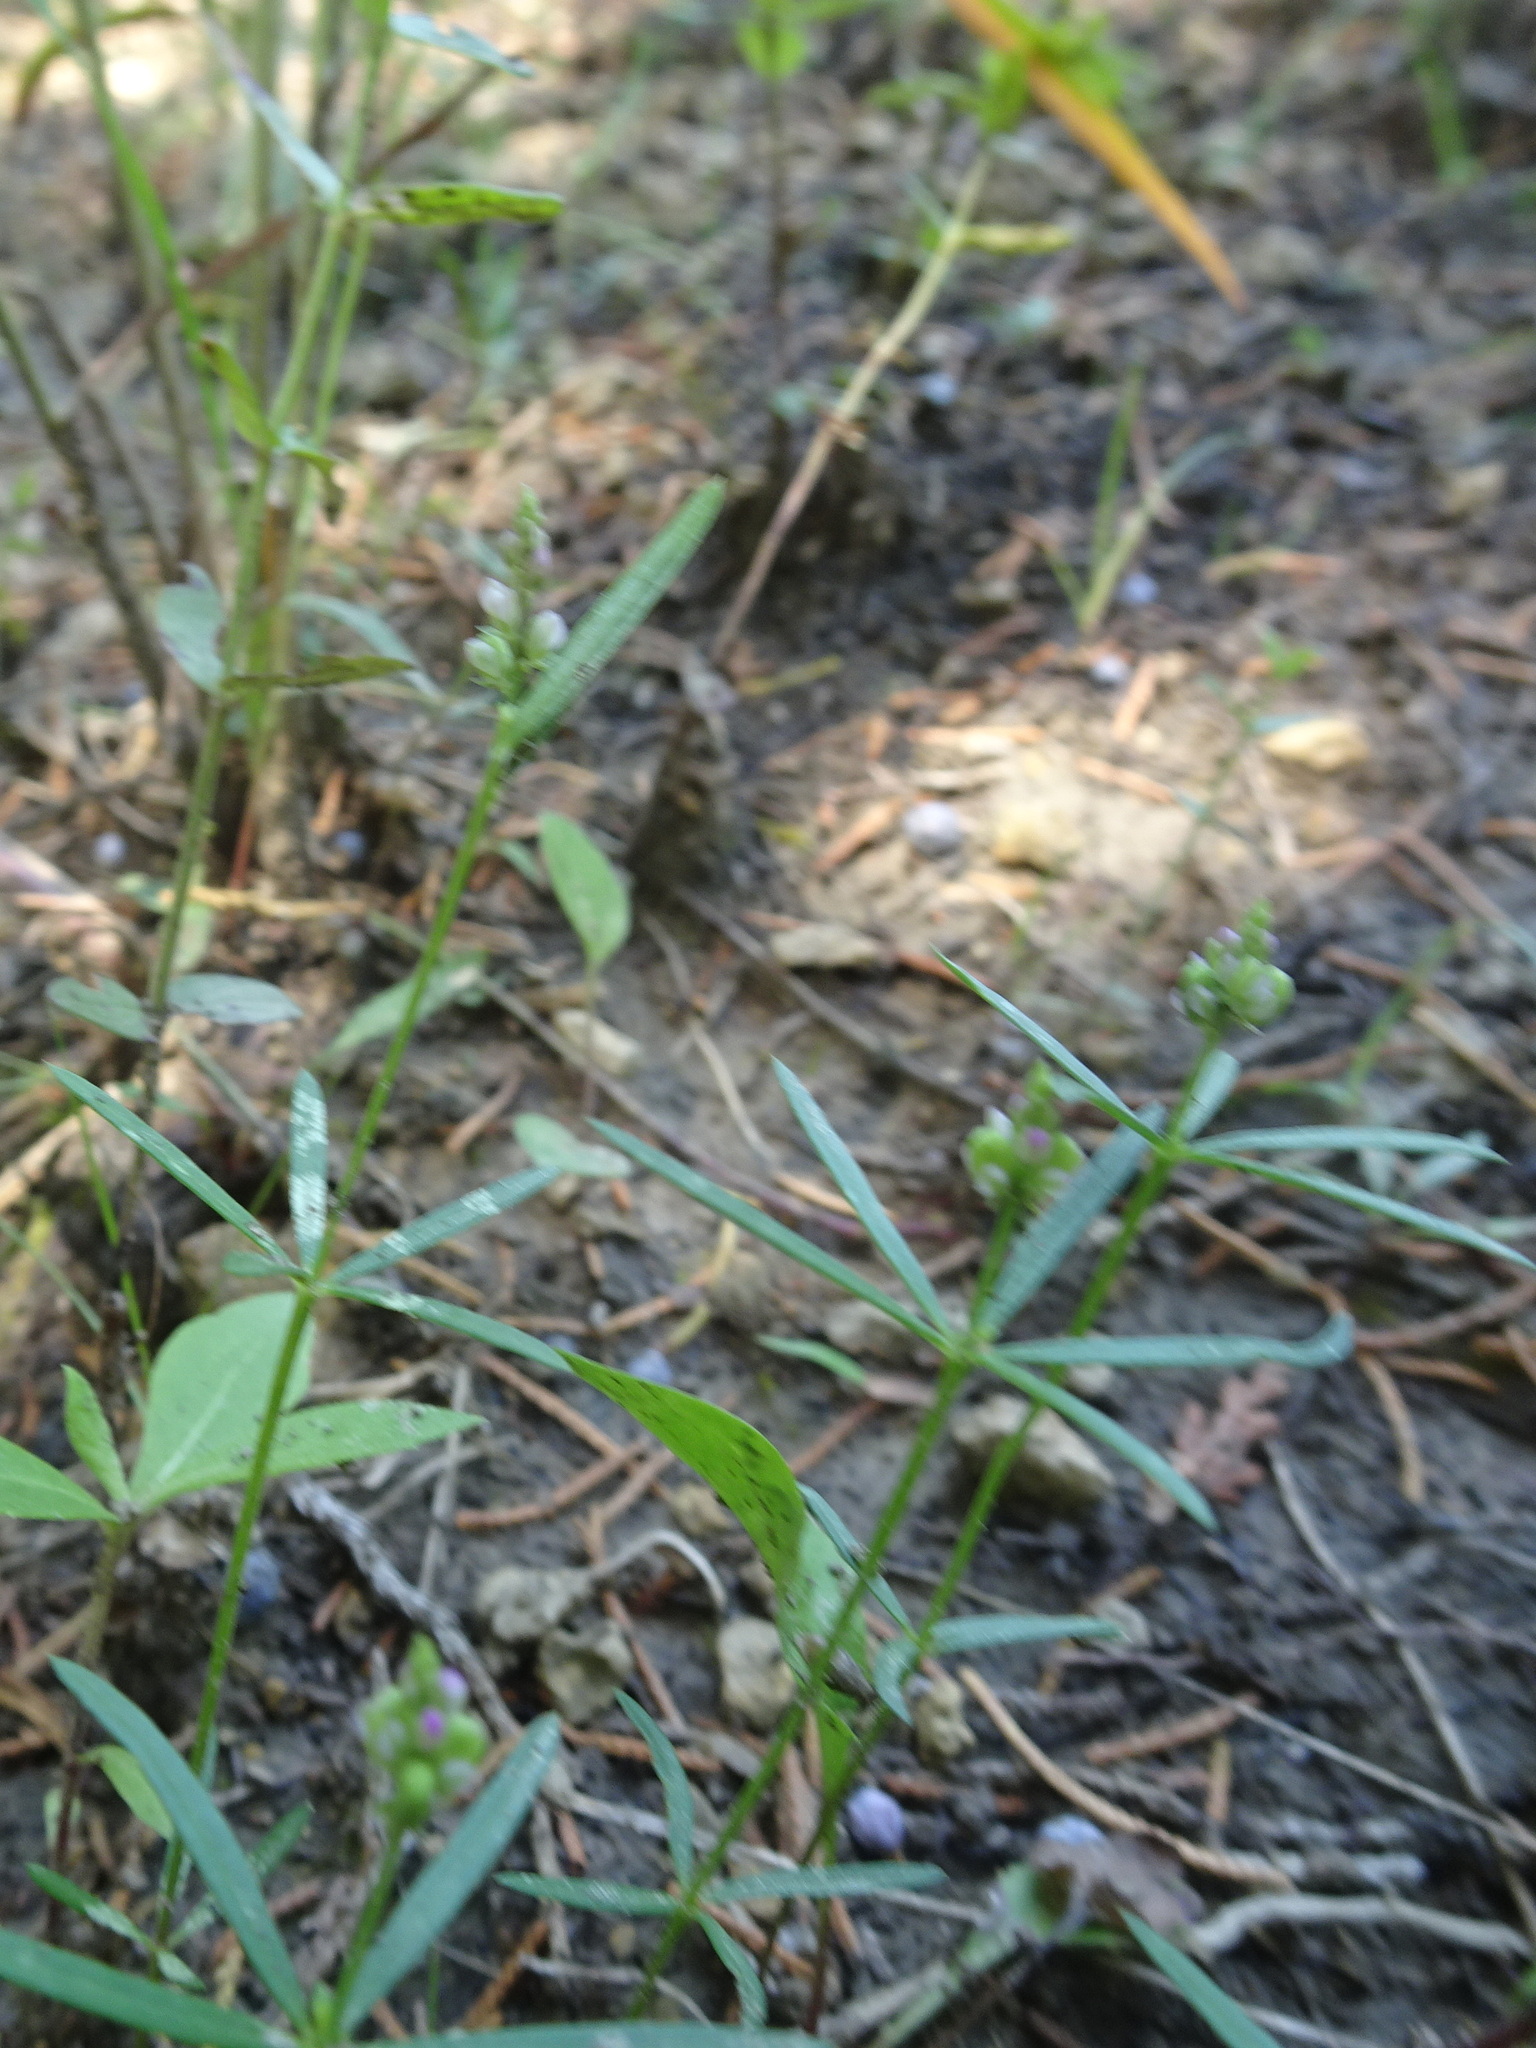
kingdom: Plantae
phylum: Tracheophyta
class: Magnoliopsida
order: Fabales
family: Polygalaceae
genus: Polygala
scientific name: Polygala verticillata
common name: Whorl milkwort
